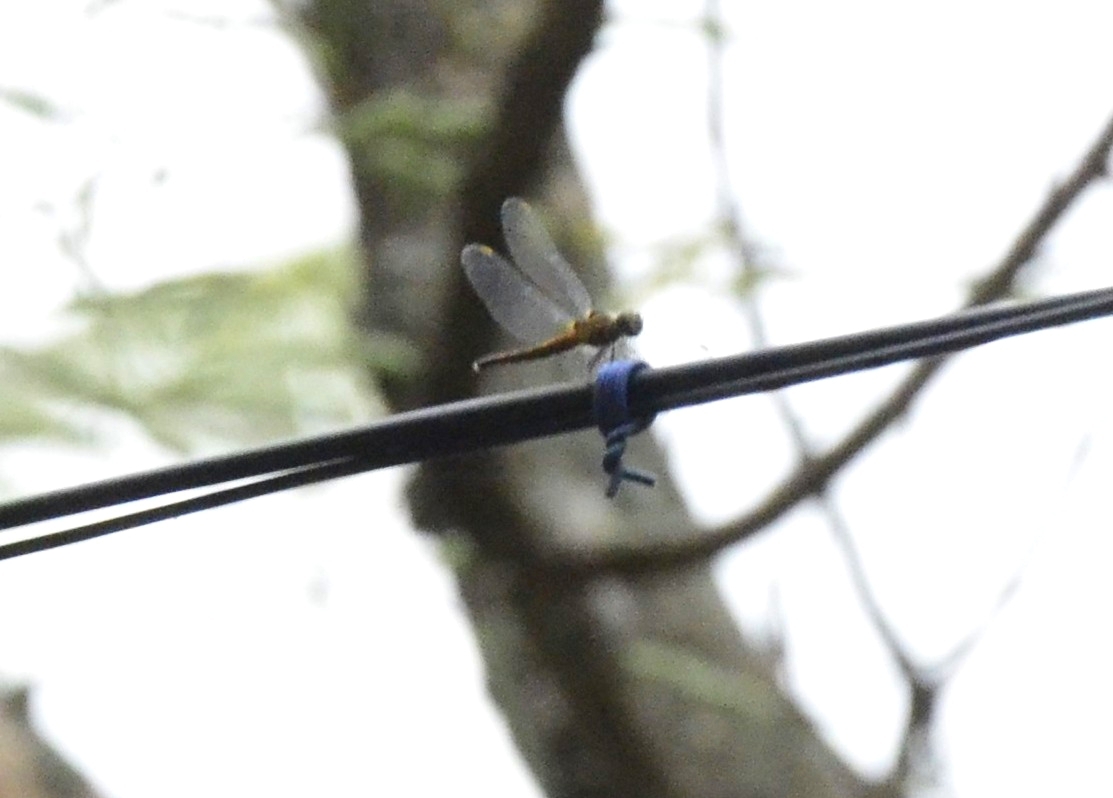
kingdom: Animalia
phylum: Arthropoda
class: Insecta
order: Odonata
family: Libellulidae
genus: Brachydiplax
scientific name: Brachydiplax chalybea
